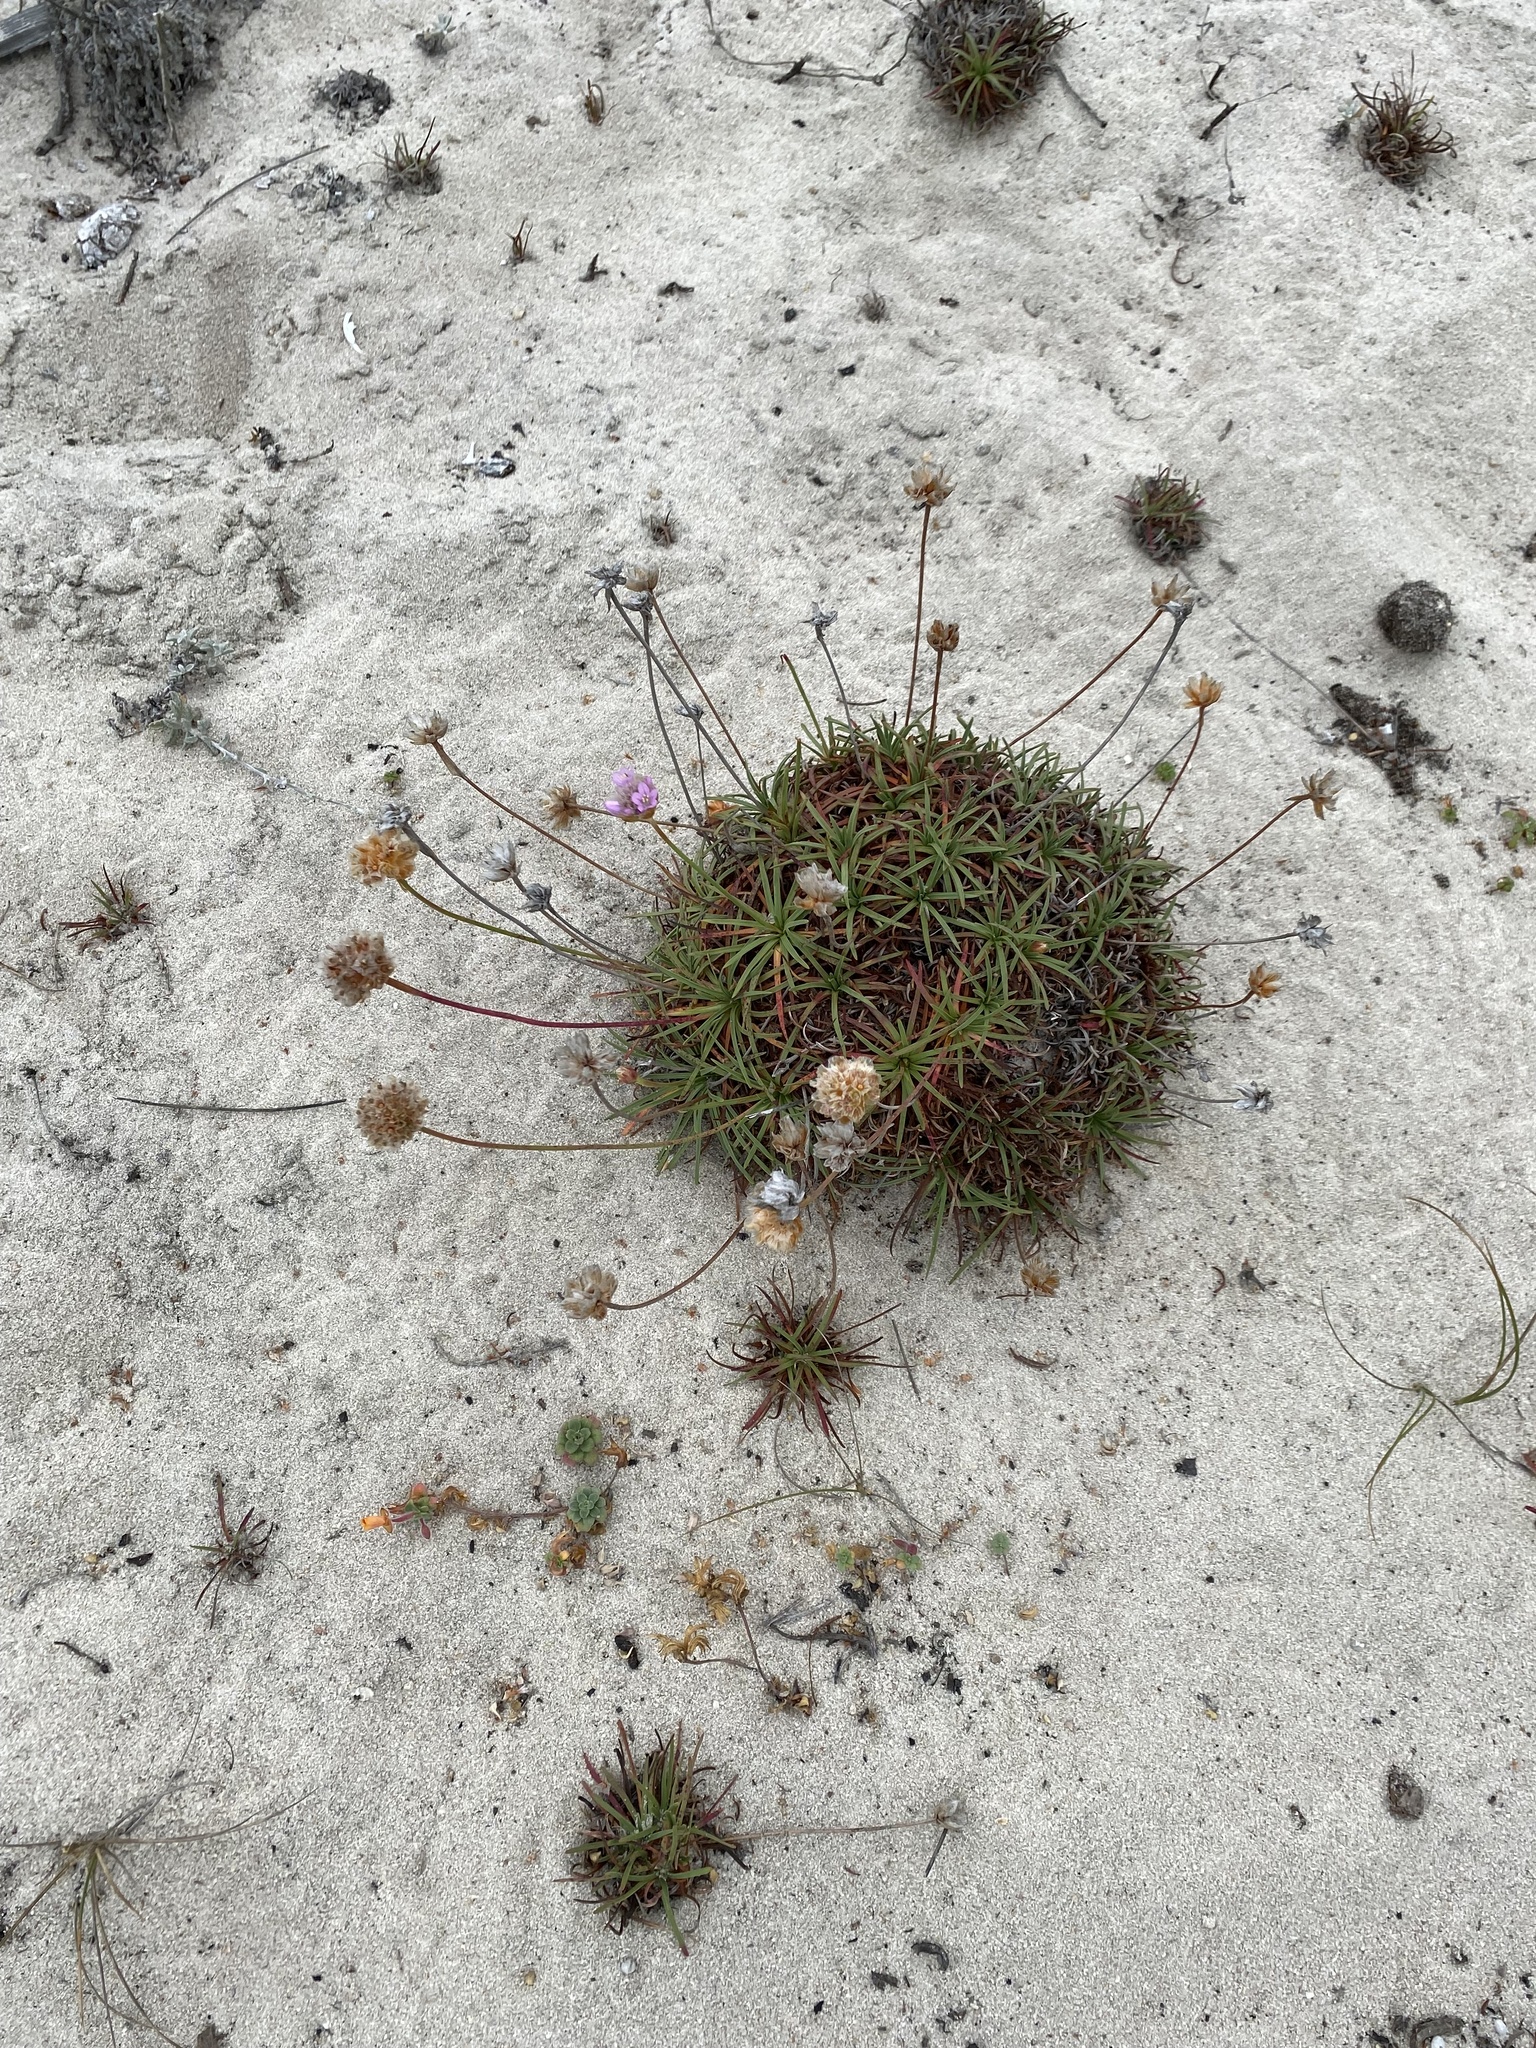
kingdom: Plantae
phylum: Tracheophyta
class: Magnoliopsida
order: Caryophyllales
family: Plumbaginaceae
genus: Armeria
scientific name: Armeria maritima
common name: Thrift
